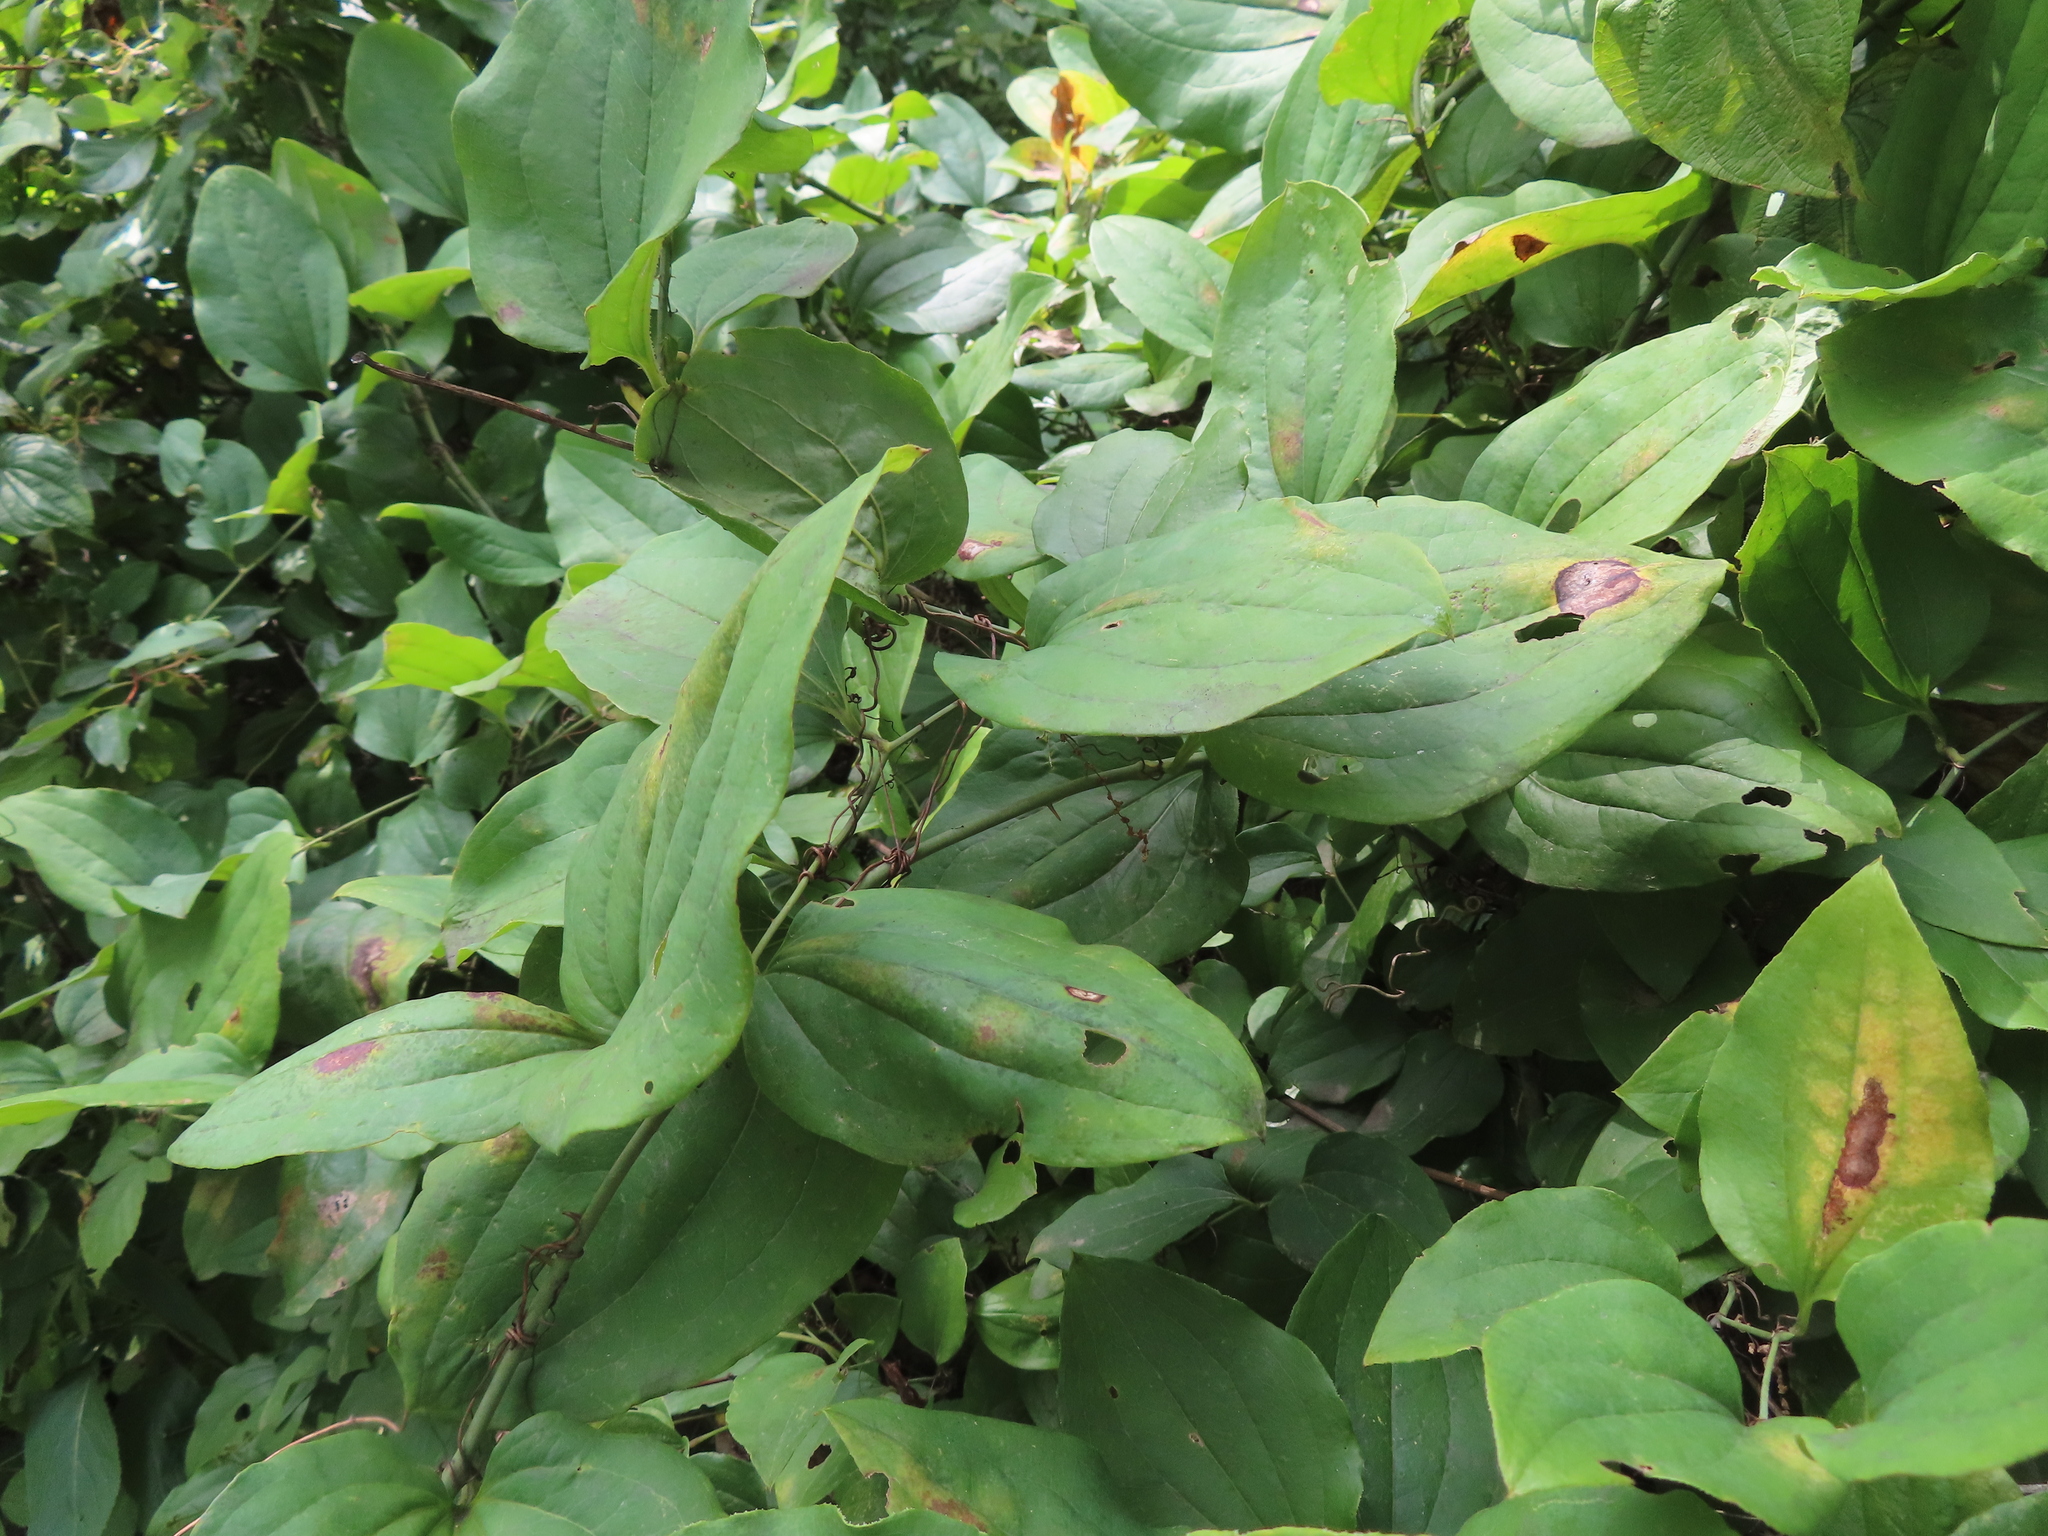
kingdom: Plantae
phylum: Tracheophyta
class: Liliopsida
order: Liliales
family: Smilacaceae
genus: Smilax
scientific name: Smilax tamnoides
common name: Hellfetter
